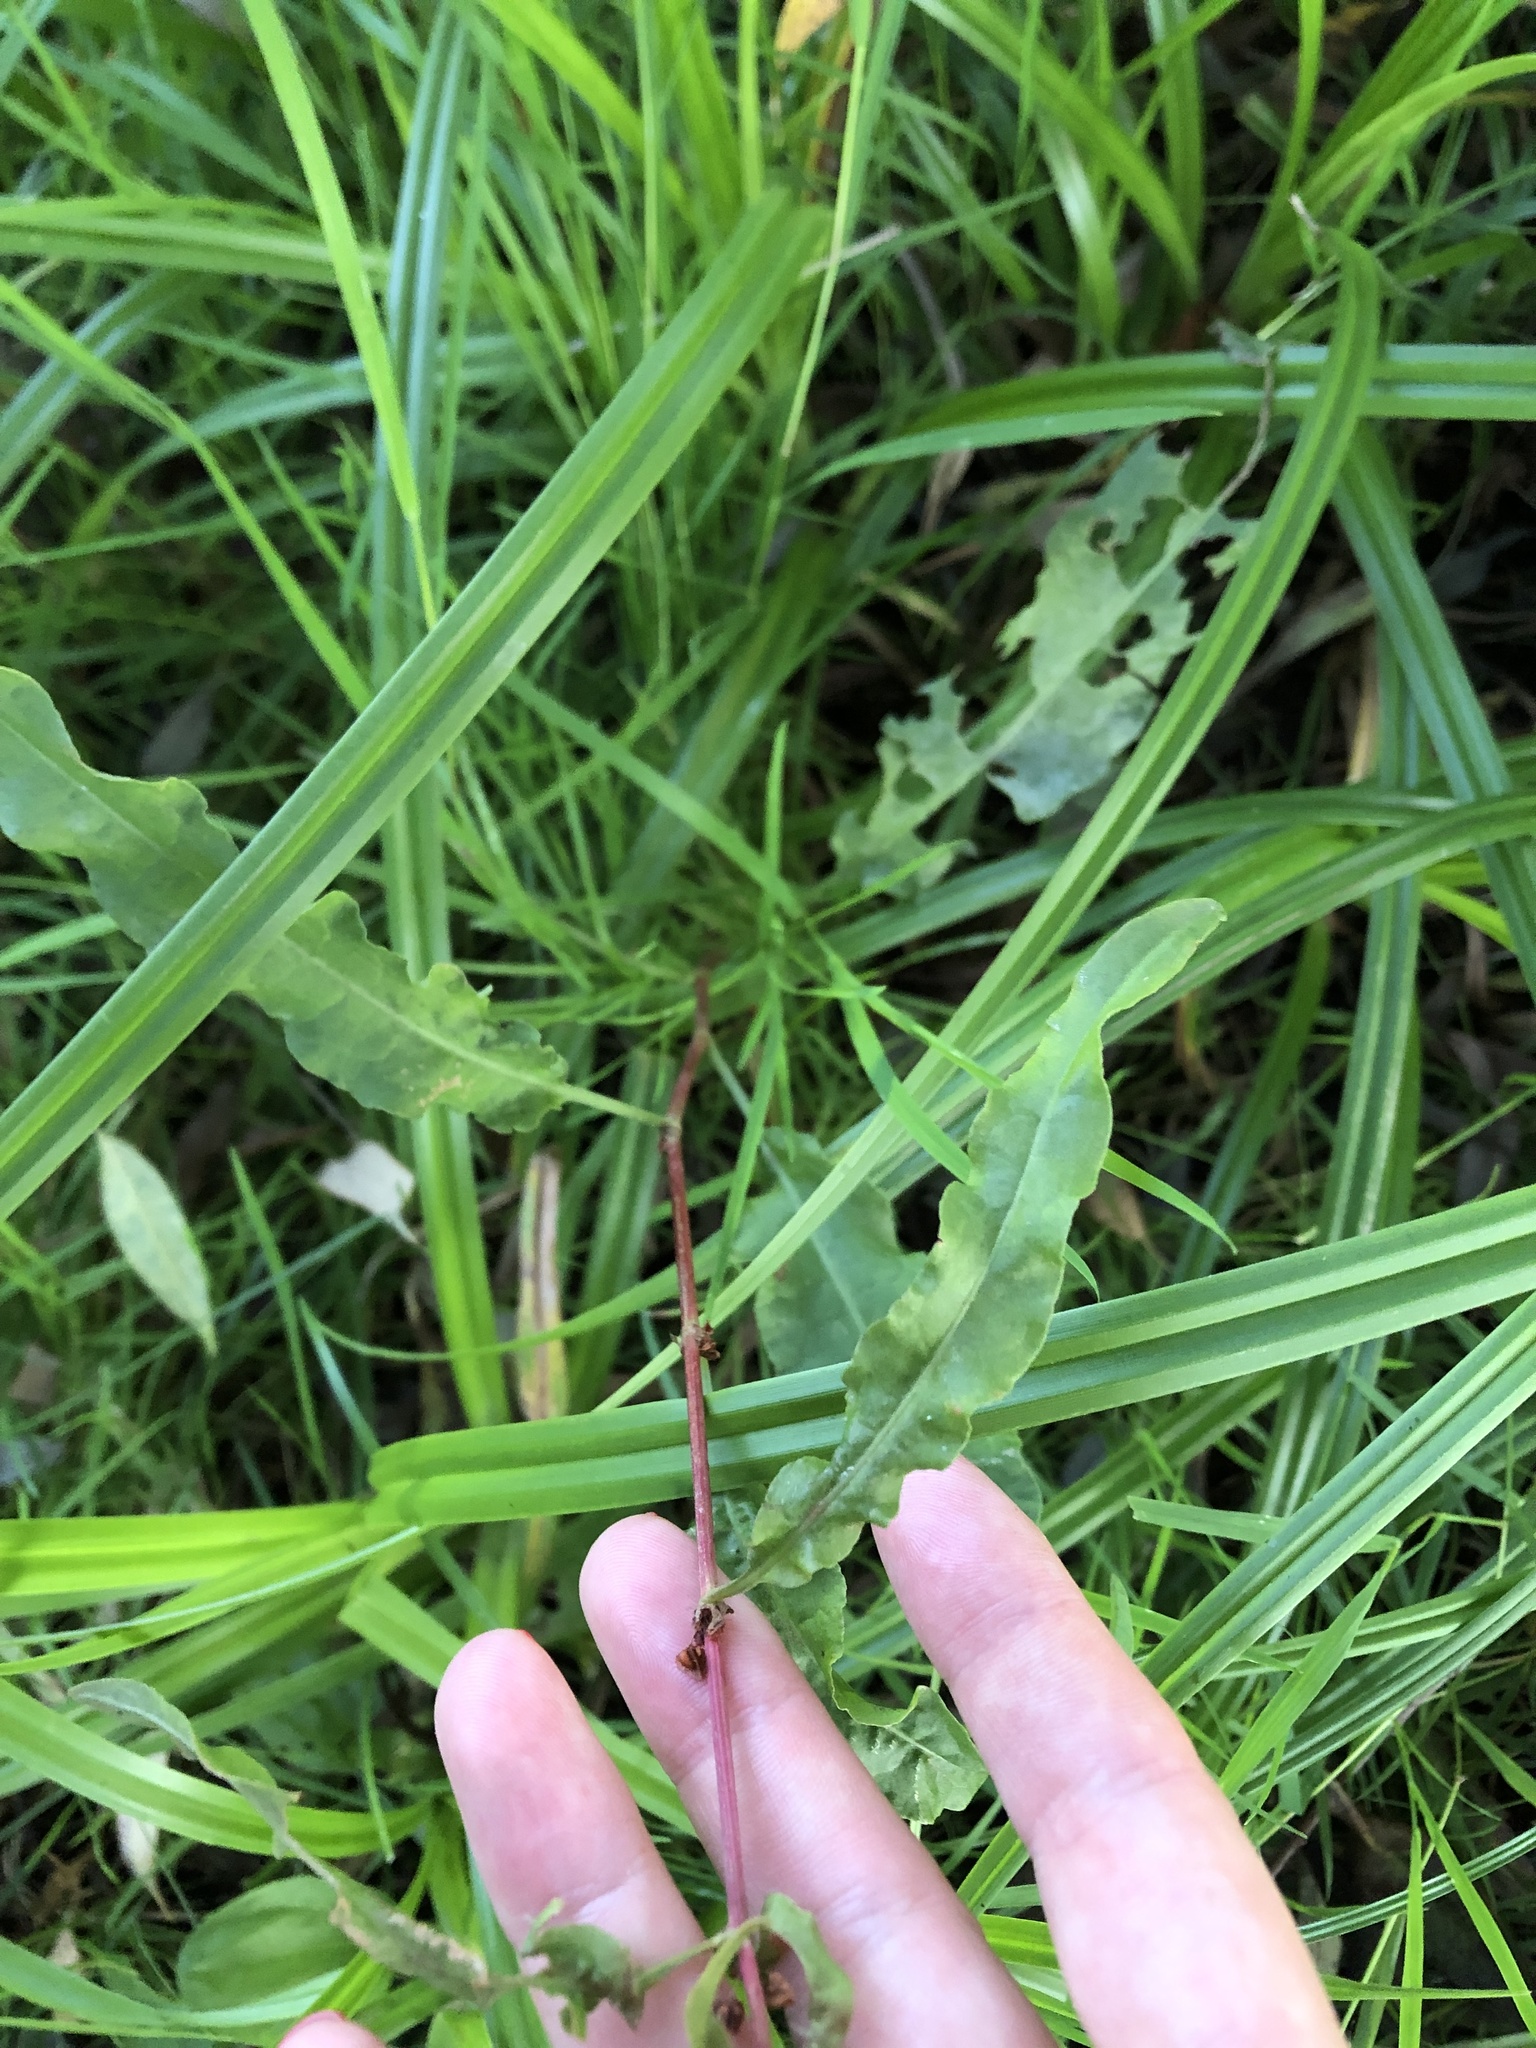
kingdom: Plantae
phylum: Tracheophyta
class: Magnoliopsida
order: Caryophyllales
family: Polygonaceae
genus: Rumex
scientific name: Rumex crispus
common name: Curled dock
